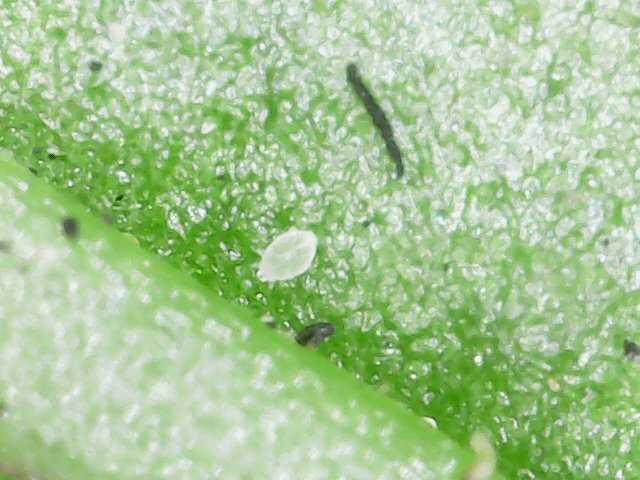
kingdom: Animalia
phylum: Arthropoda
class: Arachnida
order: Trombidiformes
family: Tarsonemidae
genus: Polyphagotarsonemus
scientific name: Polyphagotarsonemus latus
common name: Mite
